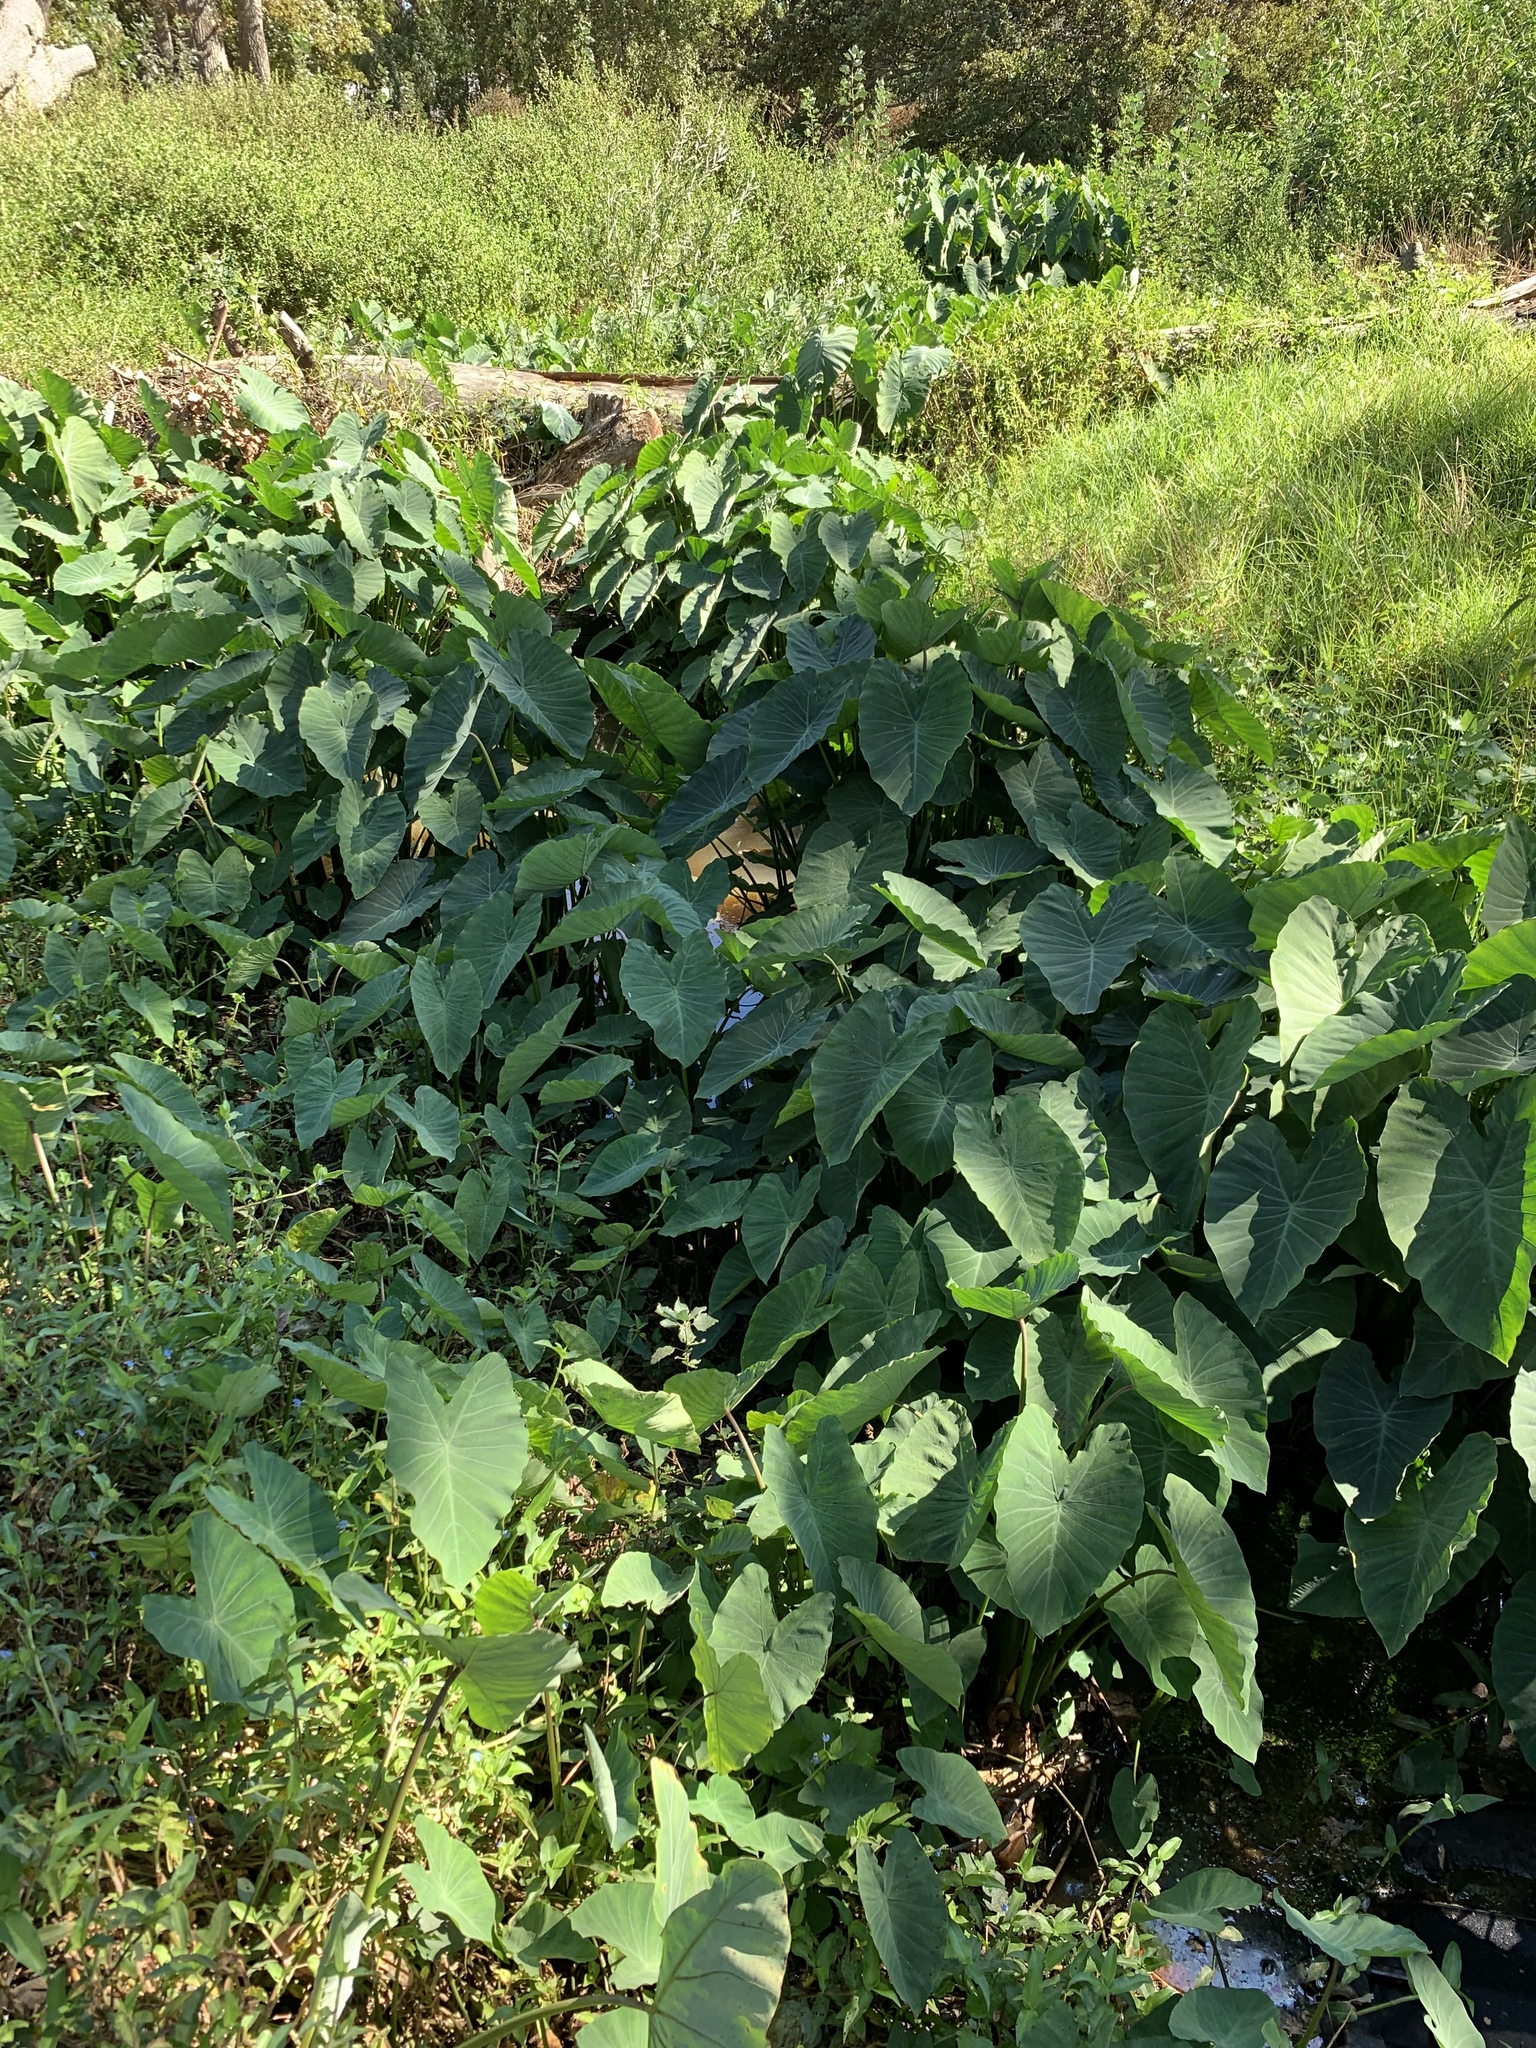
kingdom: Plantae
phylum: Tracheophyta
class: Liliopsida
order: Alismatales
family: Araceae
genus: Colocasia
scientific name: Colocasia esculenta
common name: Taro
